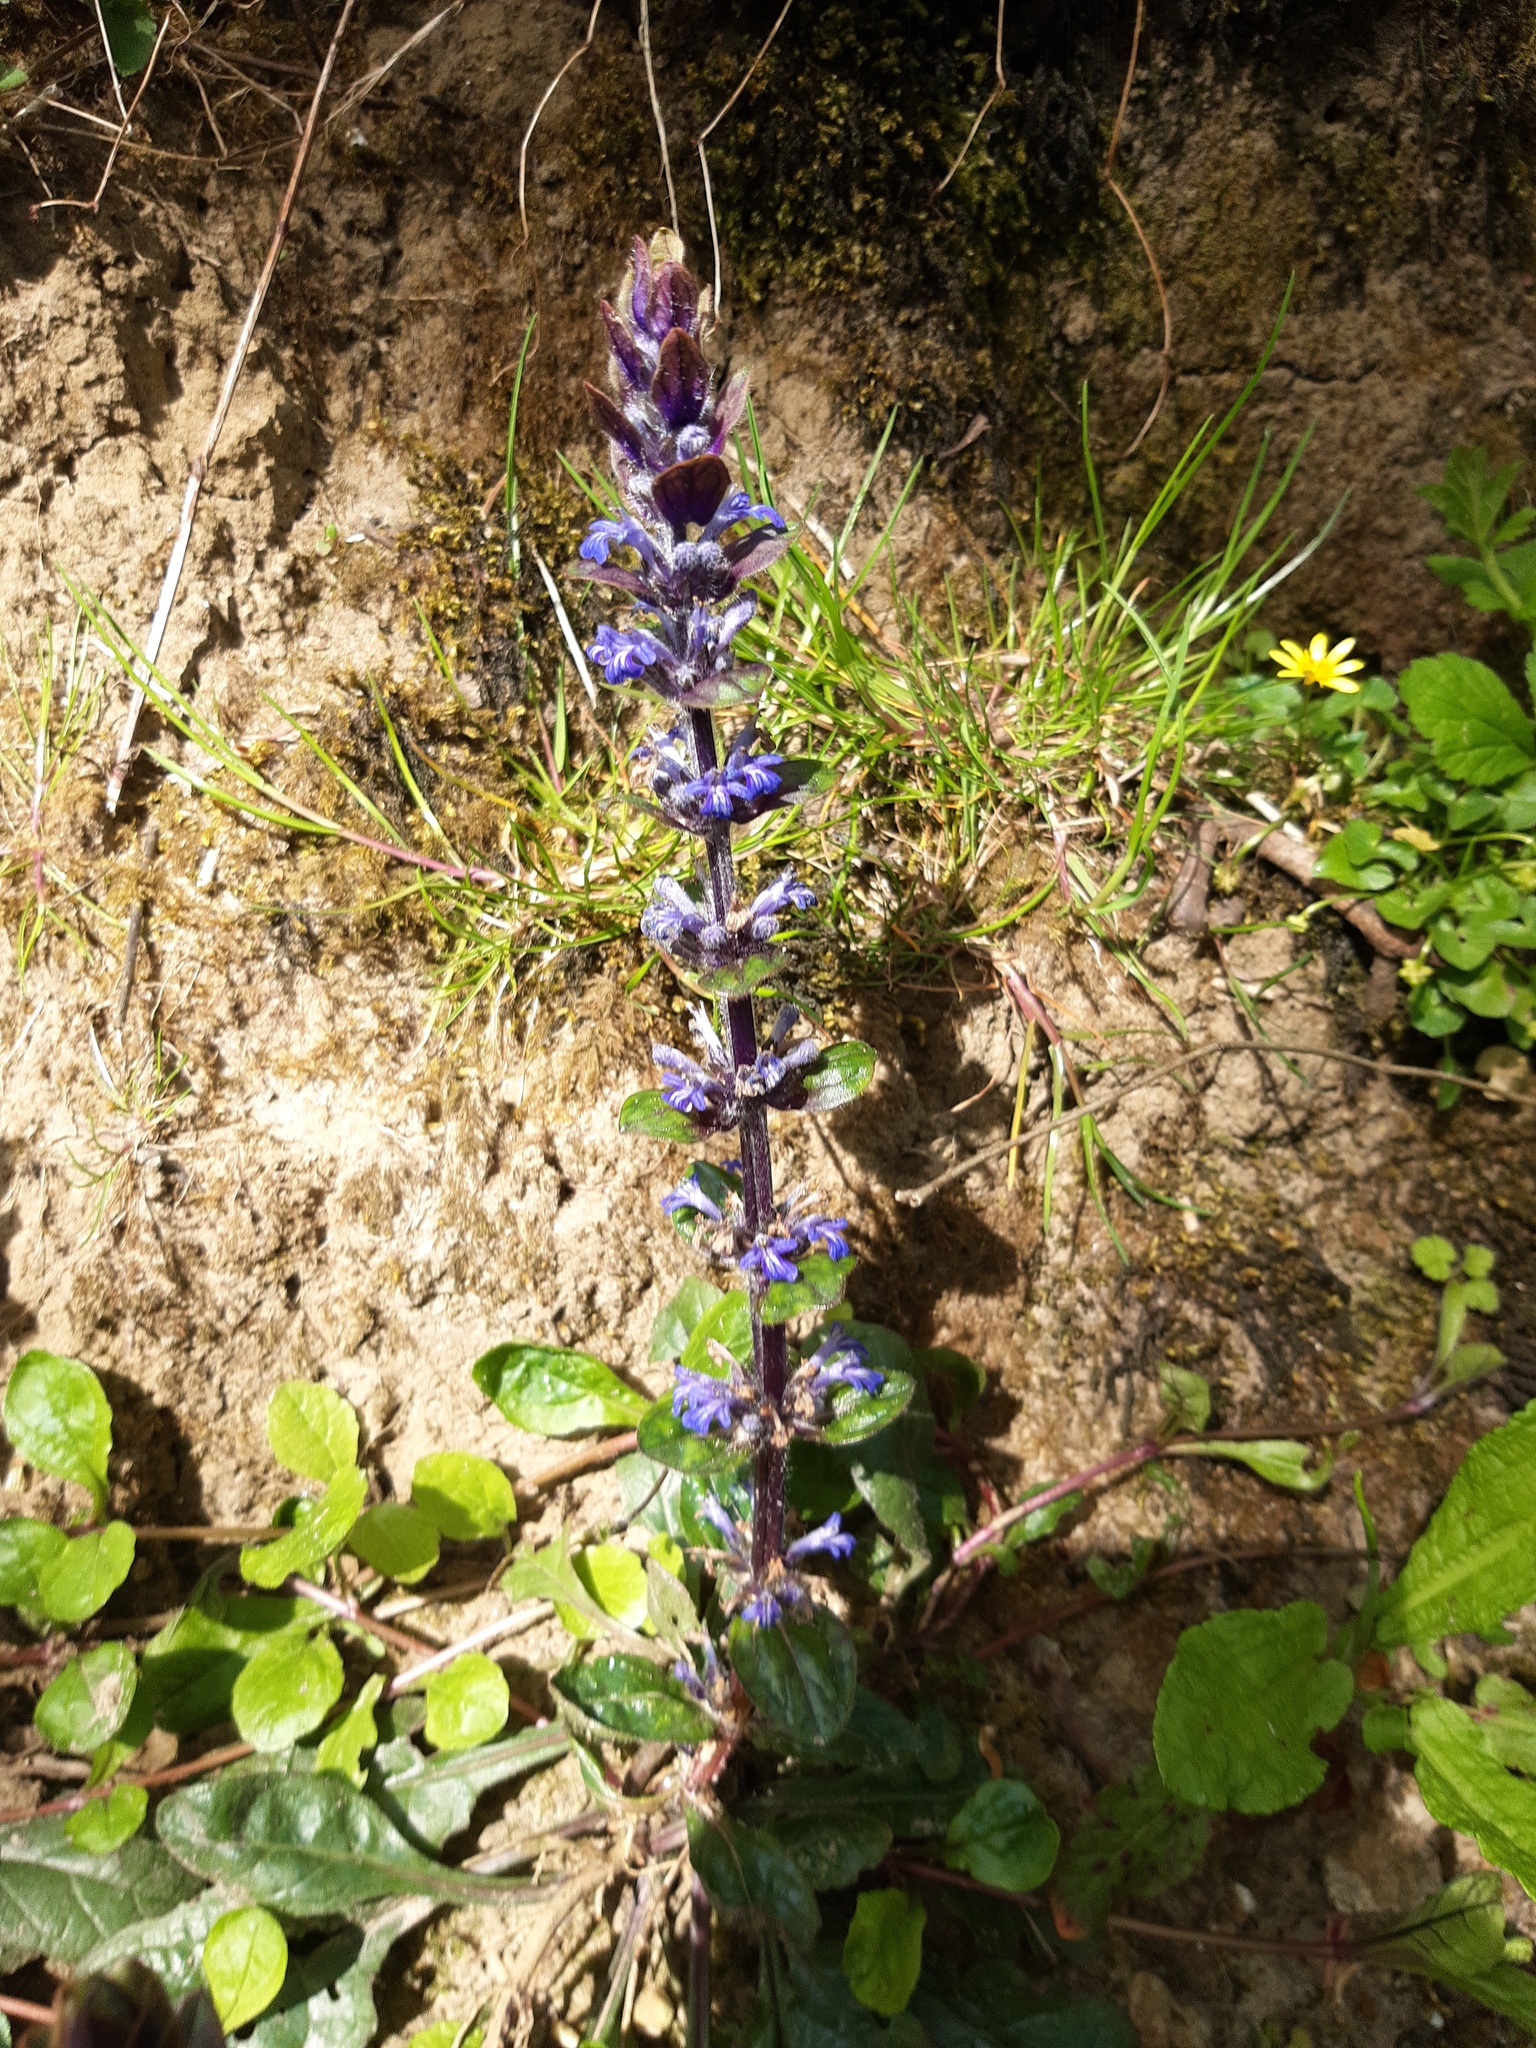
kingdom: Plantae
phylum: Tracheophyta
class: Magnoliopsida
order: Lamiales
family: Lamiaceae
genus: Ajuga
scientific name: Ajuga reptans
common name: Bugle
